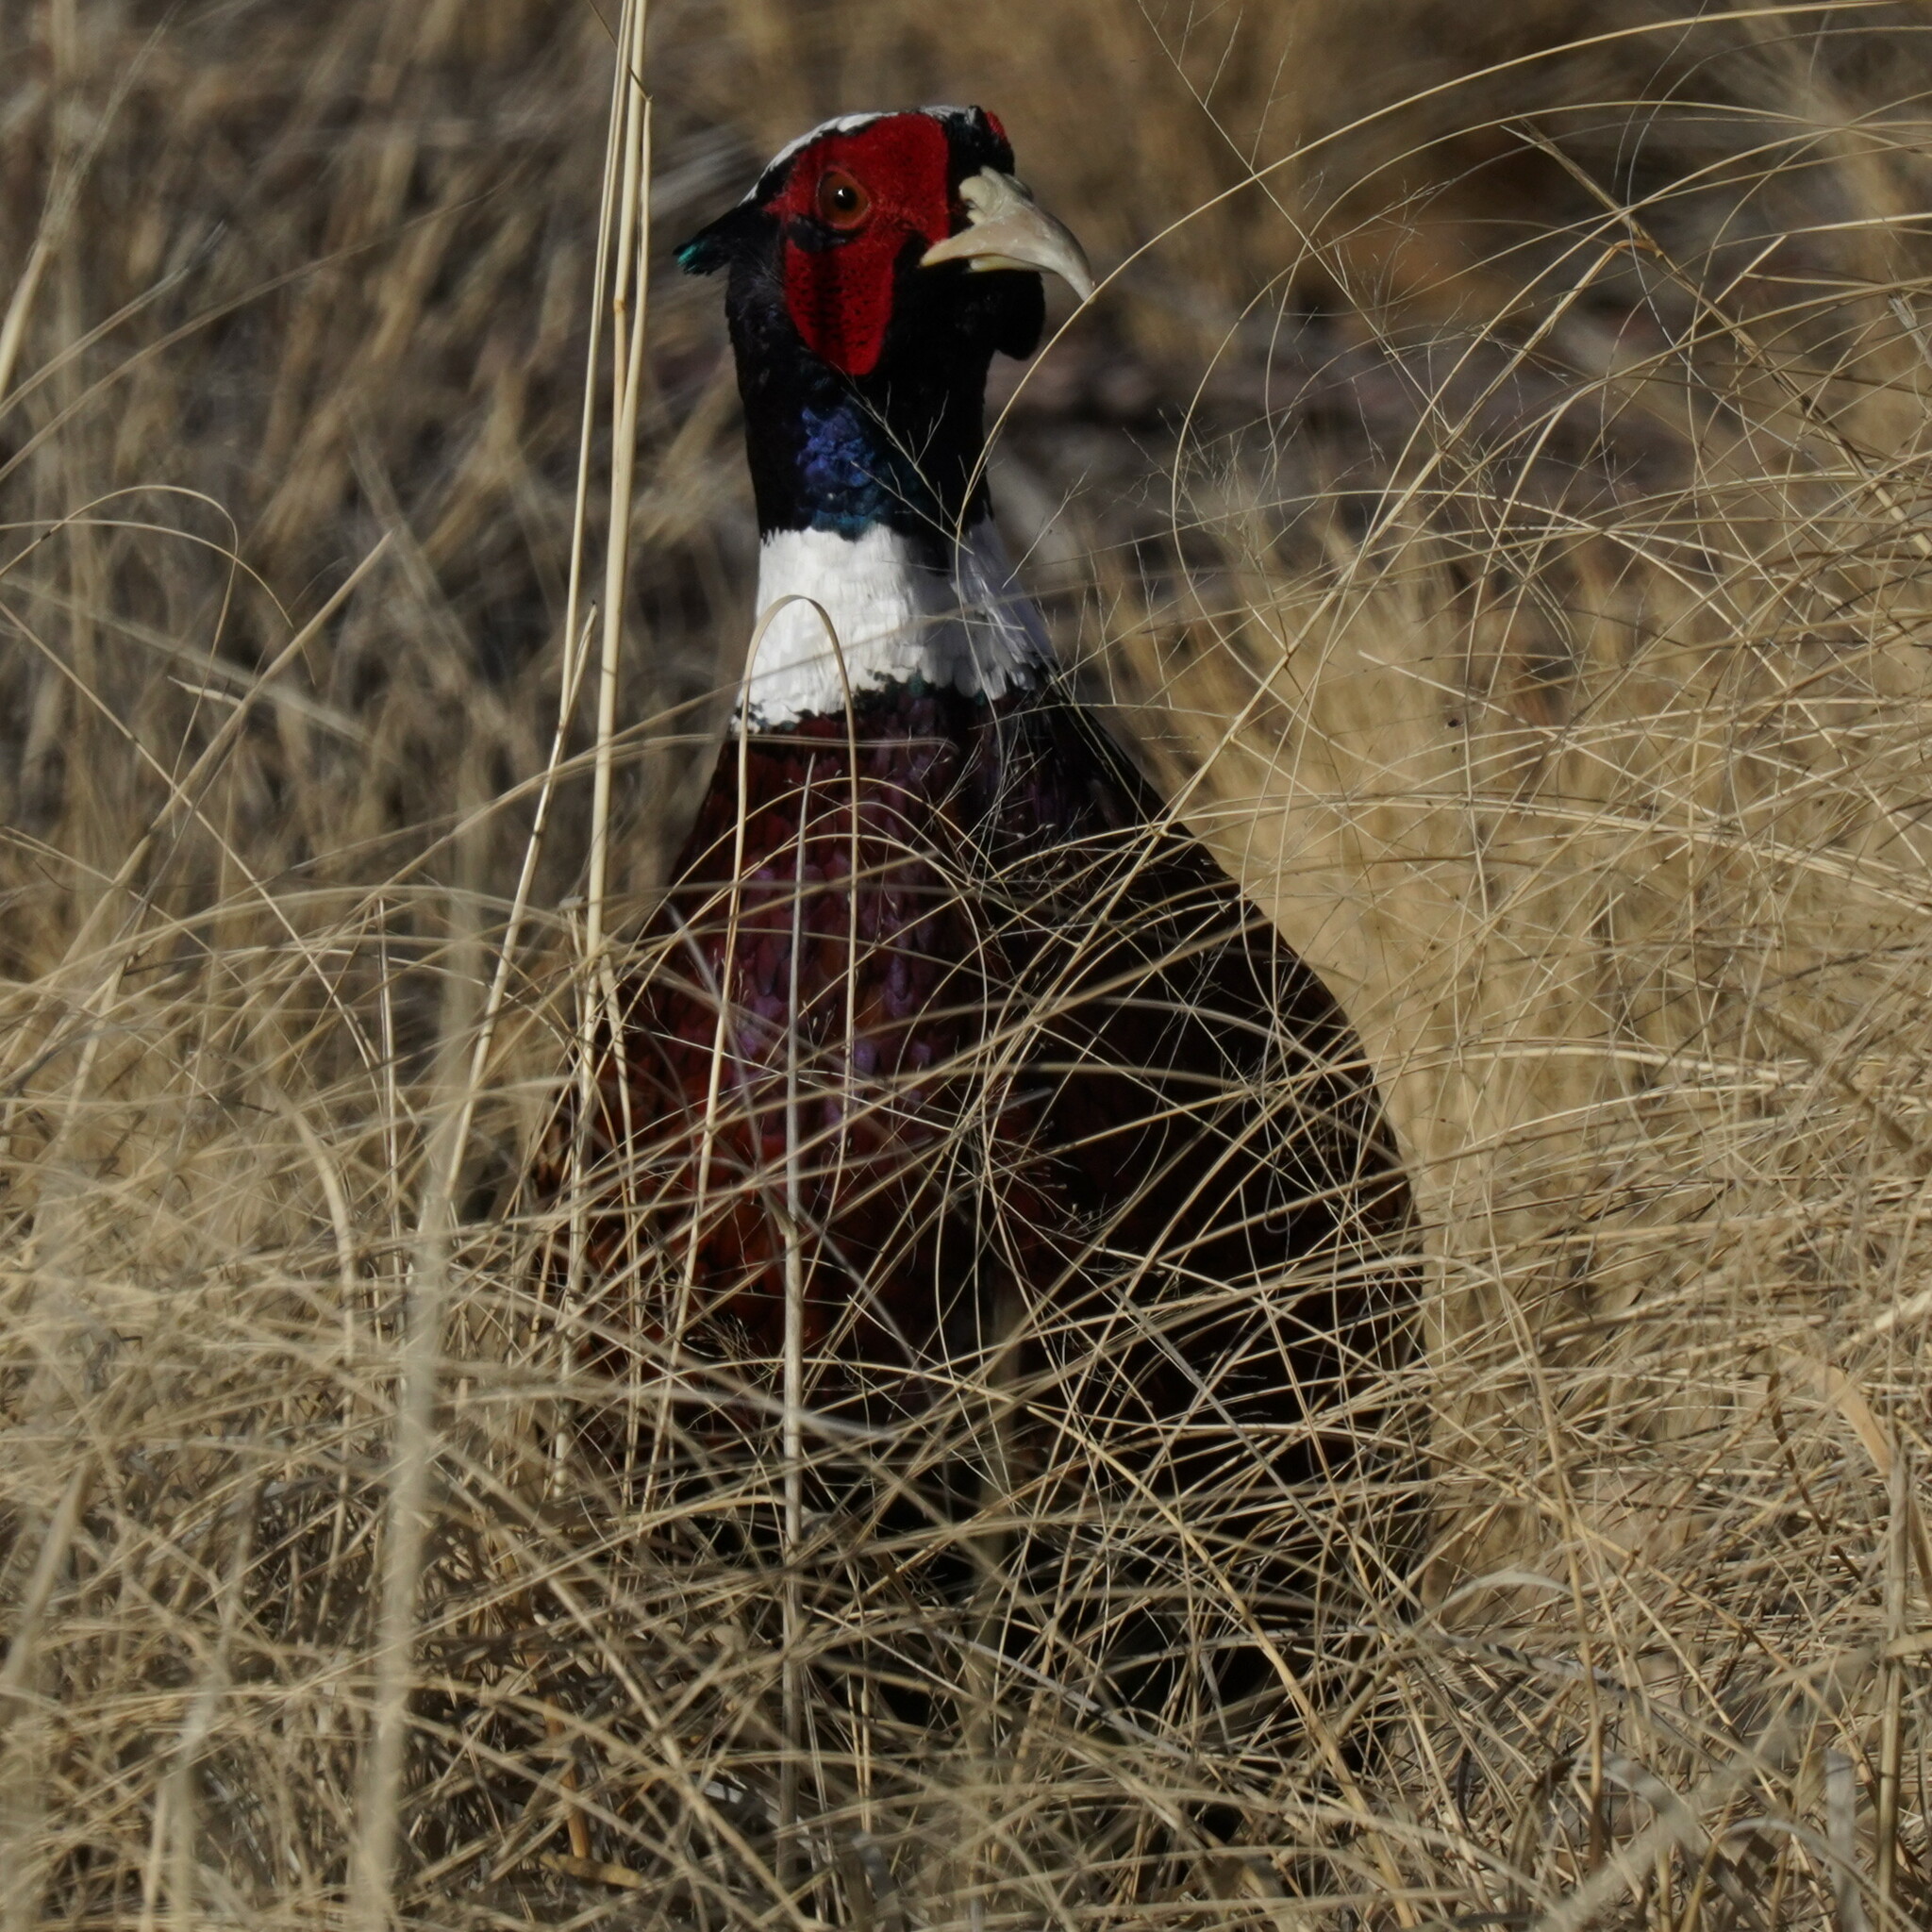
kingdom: Animalia
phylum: Chordata
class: Aves
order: Galliformes
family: Phasianidae
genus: Phasianus
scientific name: Phasianus colchicus
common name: Common pheasant
